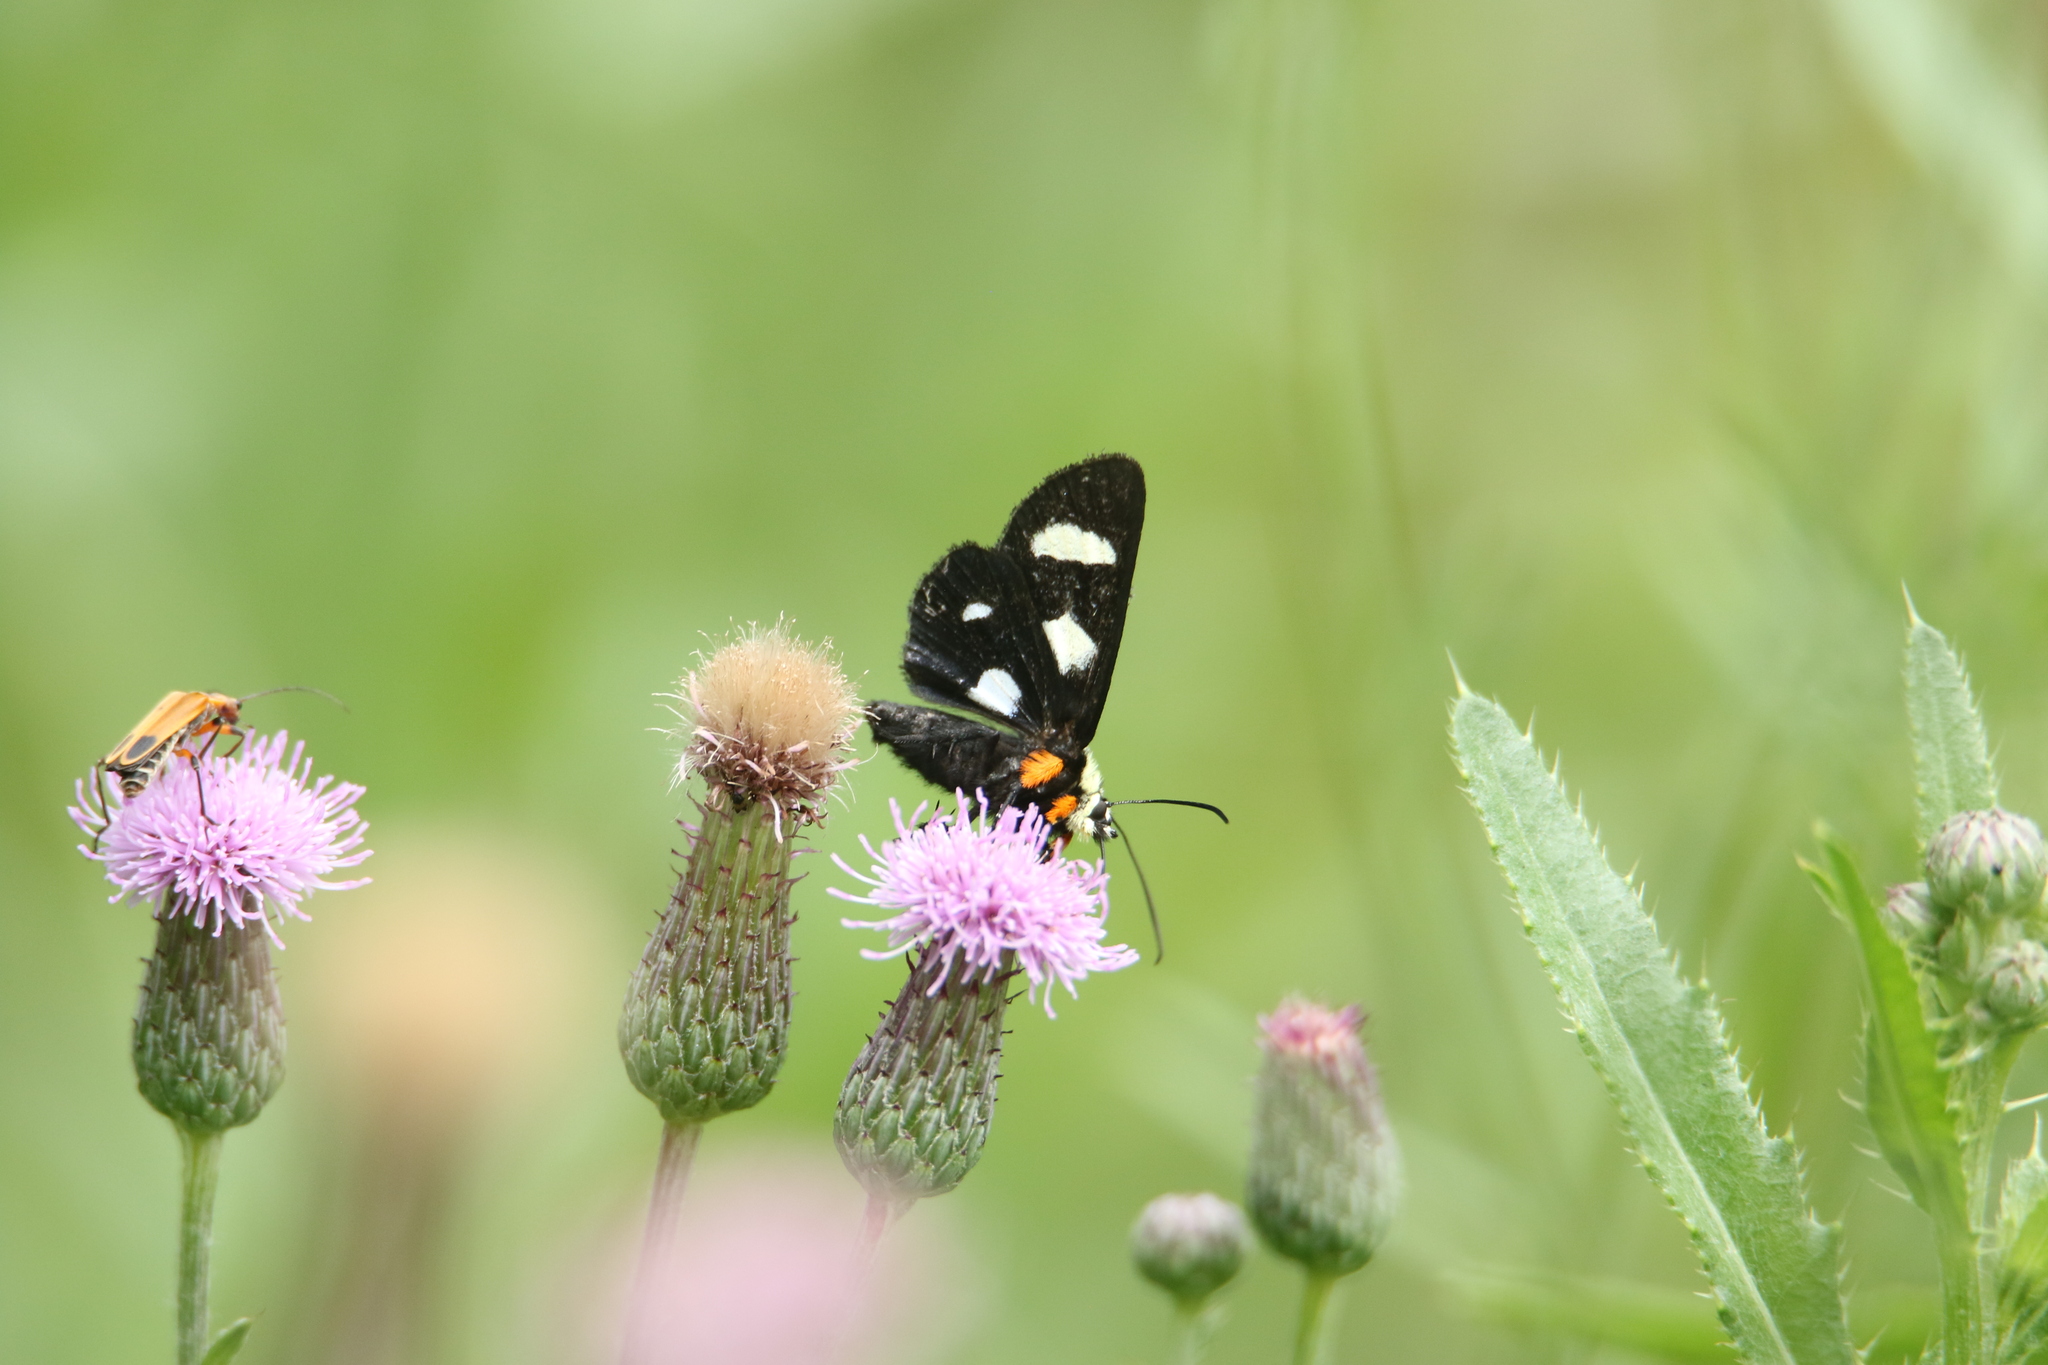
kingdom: Animalia
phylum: Arthropoda
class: Insecta
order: Lepidoptera
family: Noctuidae
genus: Alypia
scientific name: Alypia octomaculata
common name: Eight-spotted forester
